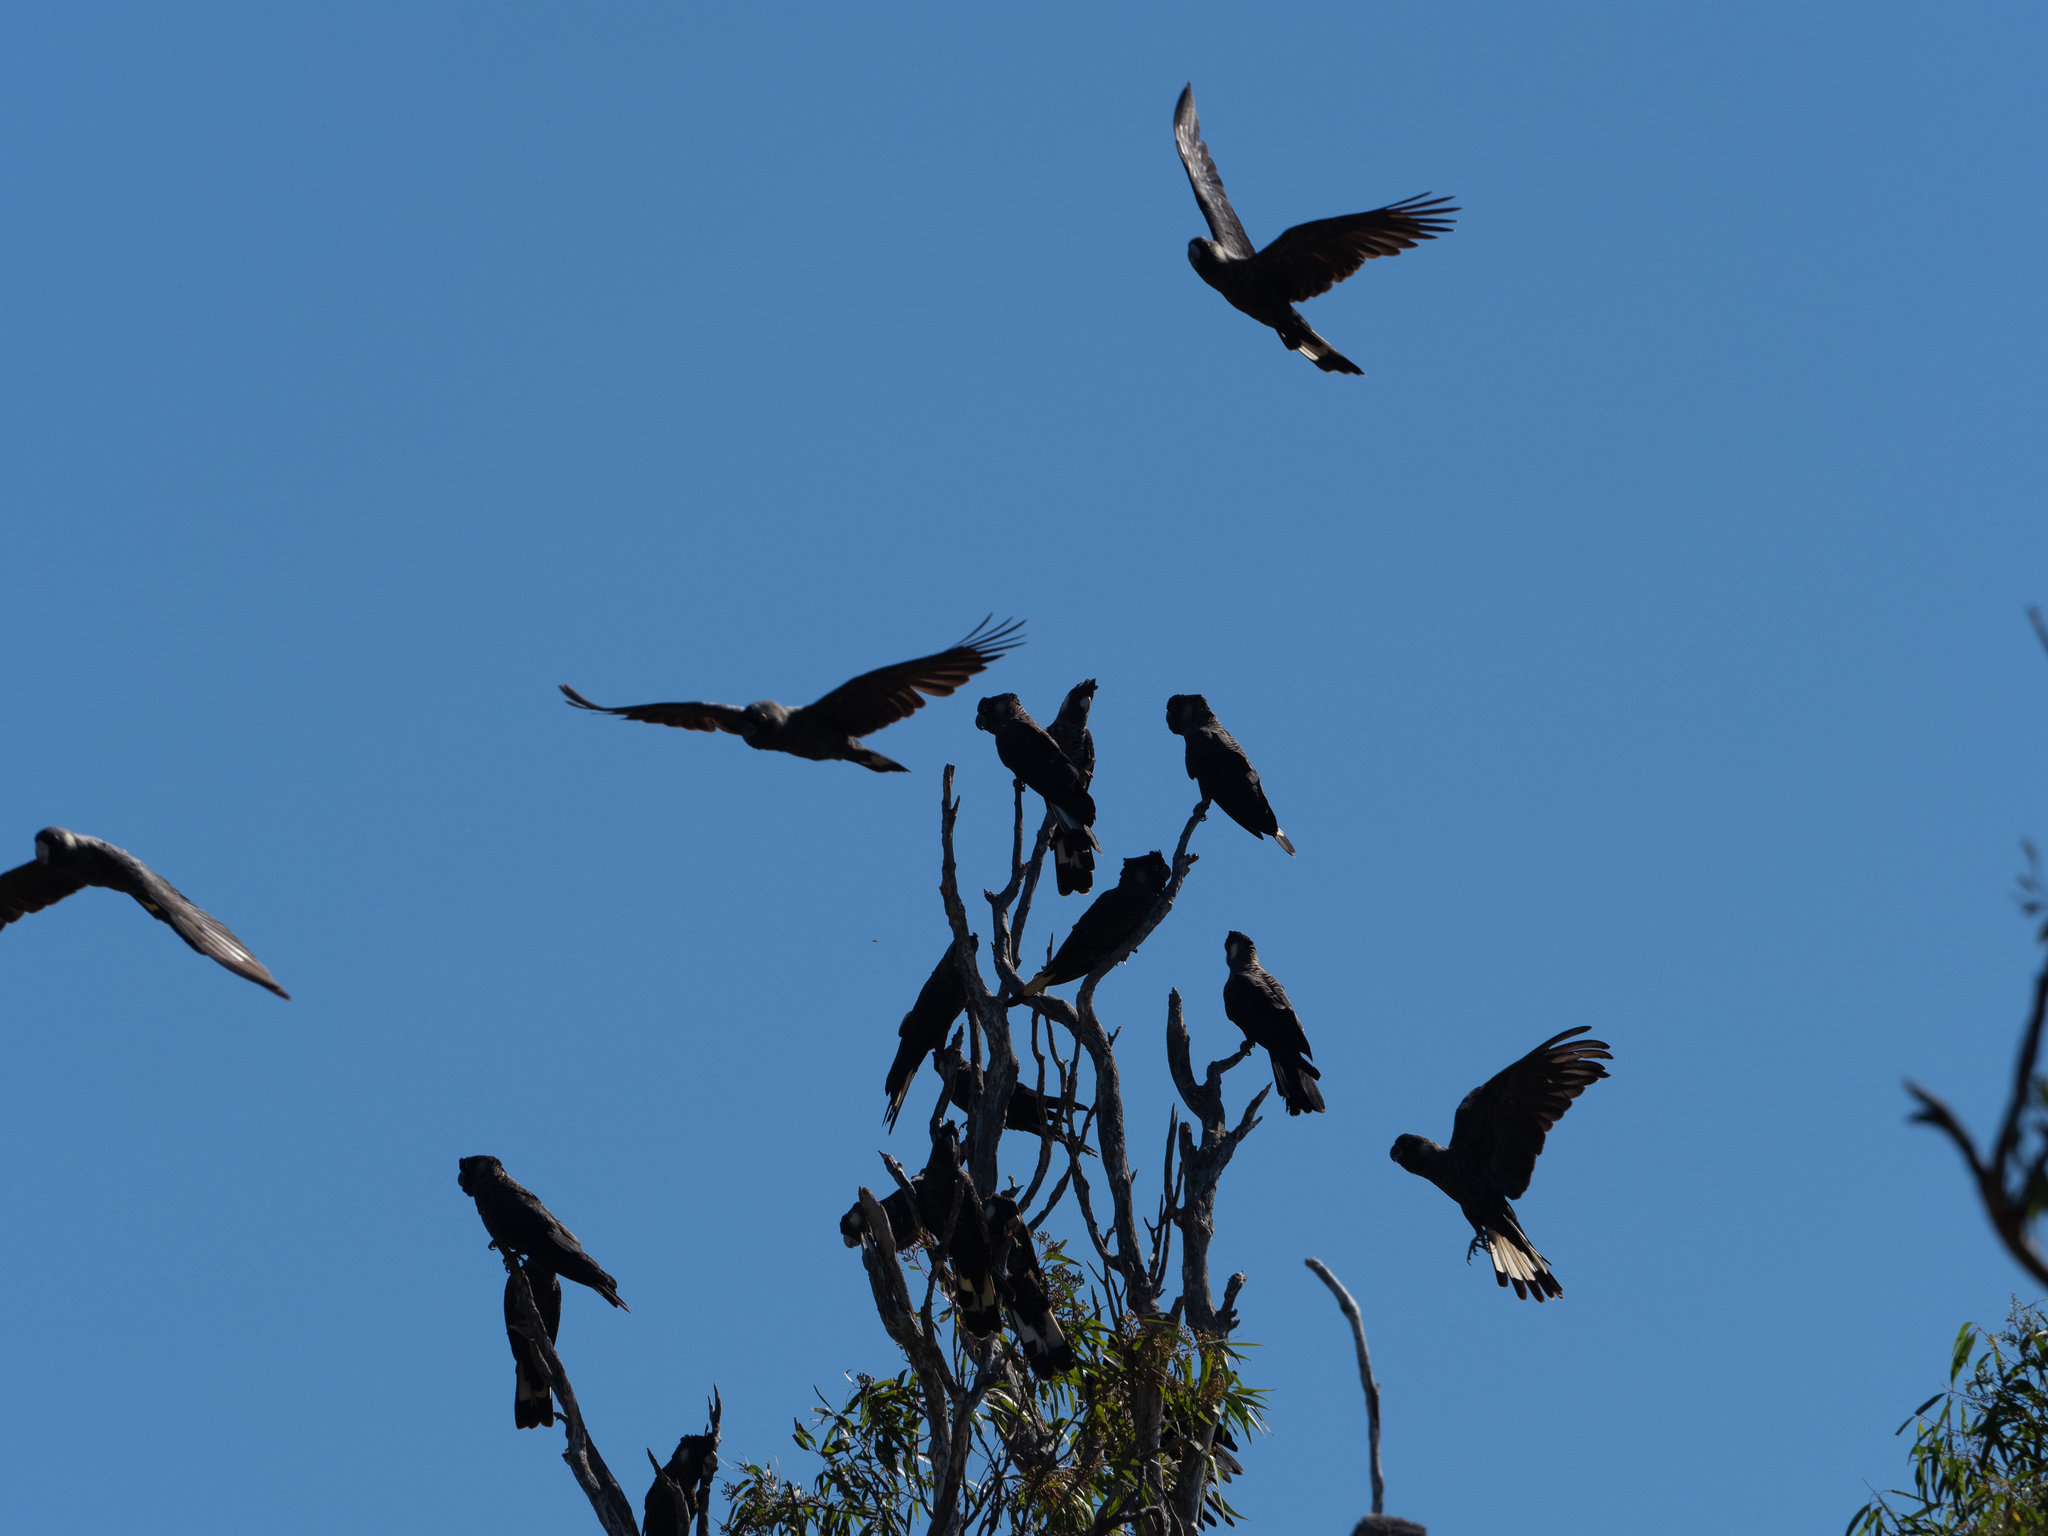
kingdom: Animalia
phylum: Chordata
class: Aves
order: Psittaciformes
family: Cacatuidae
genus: Zanda
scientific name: Zanda latirostris
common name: Short-billed black-cockatoo
